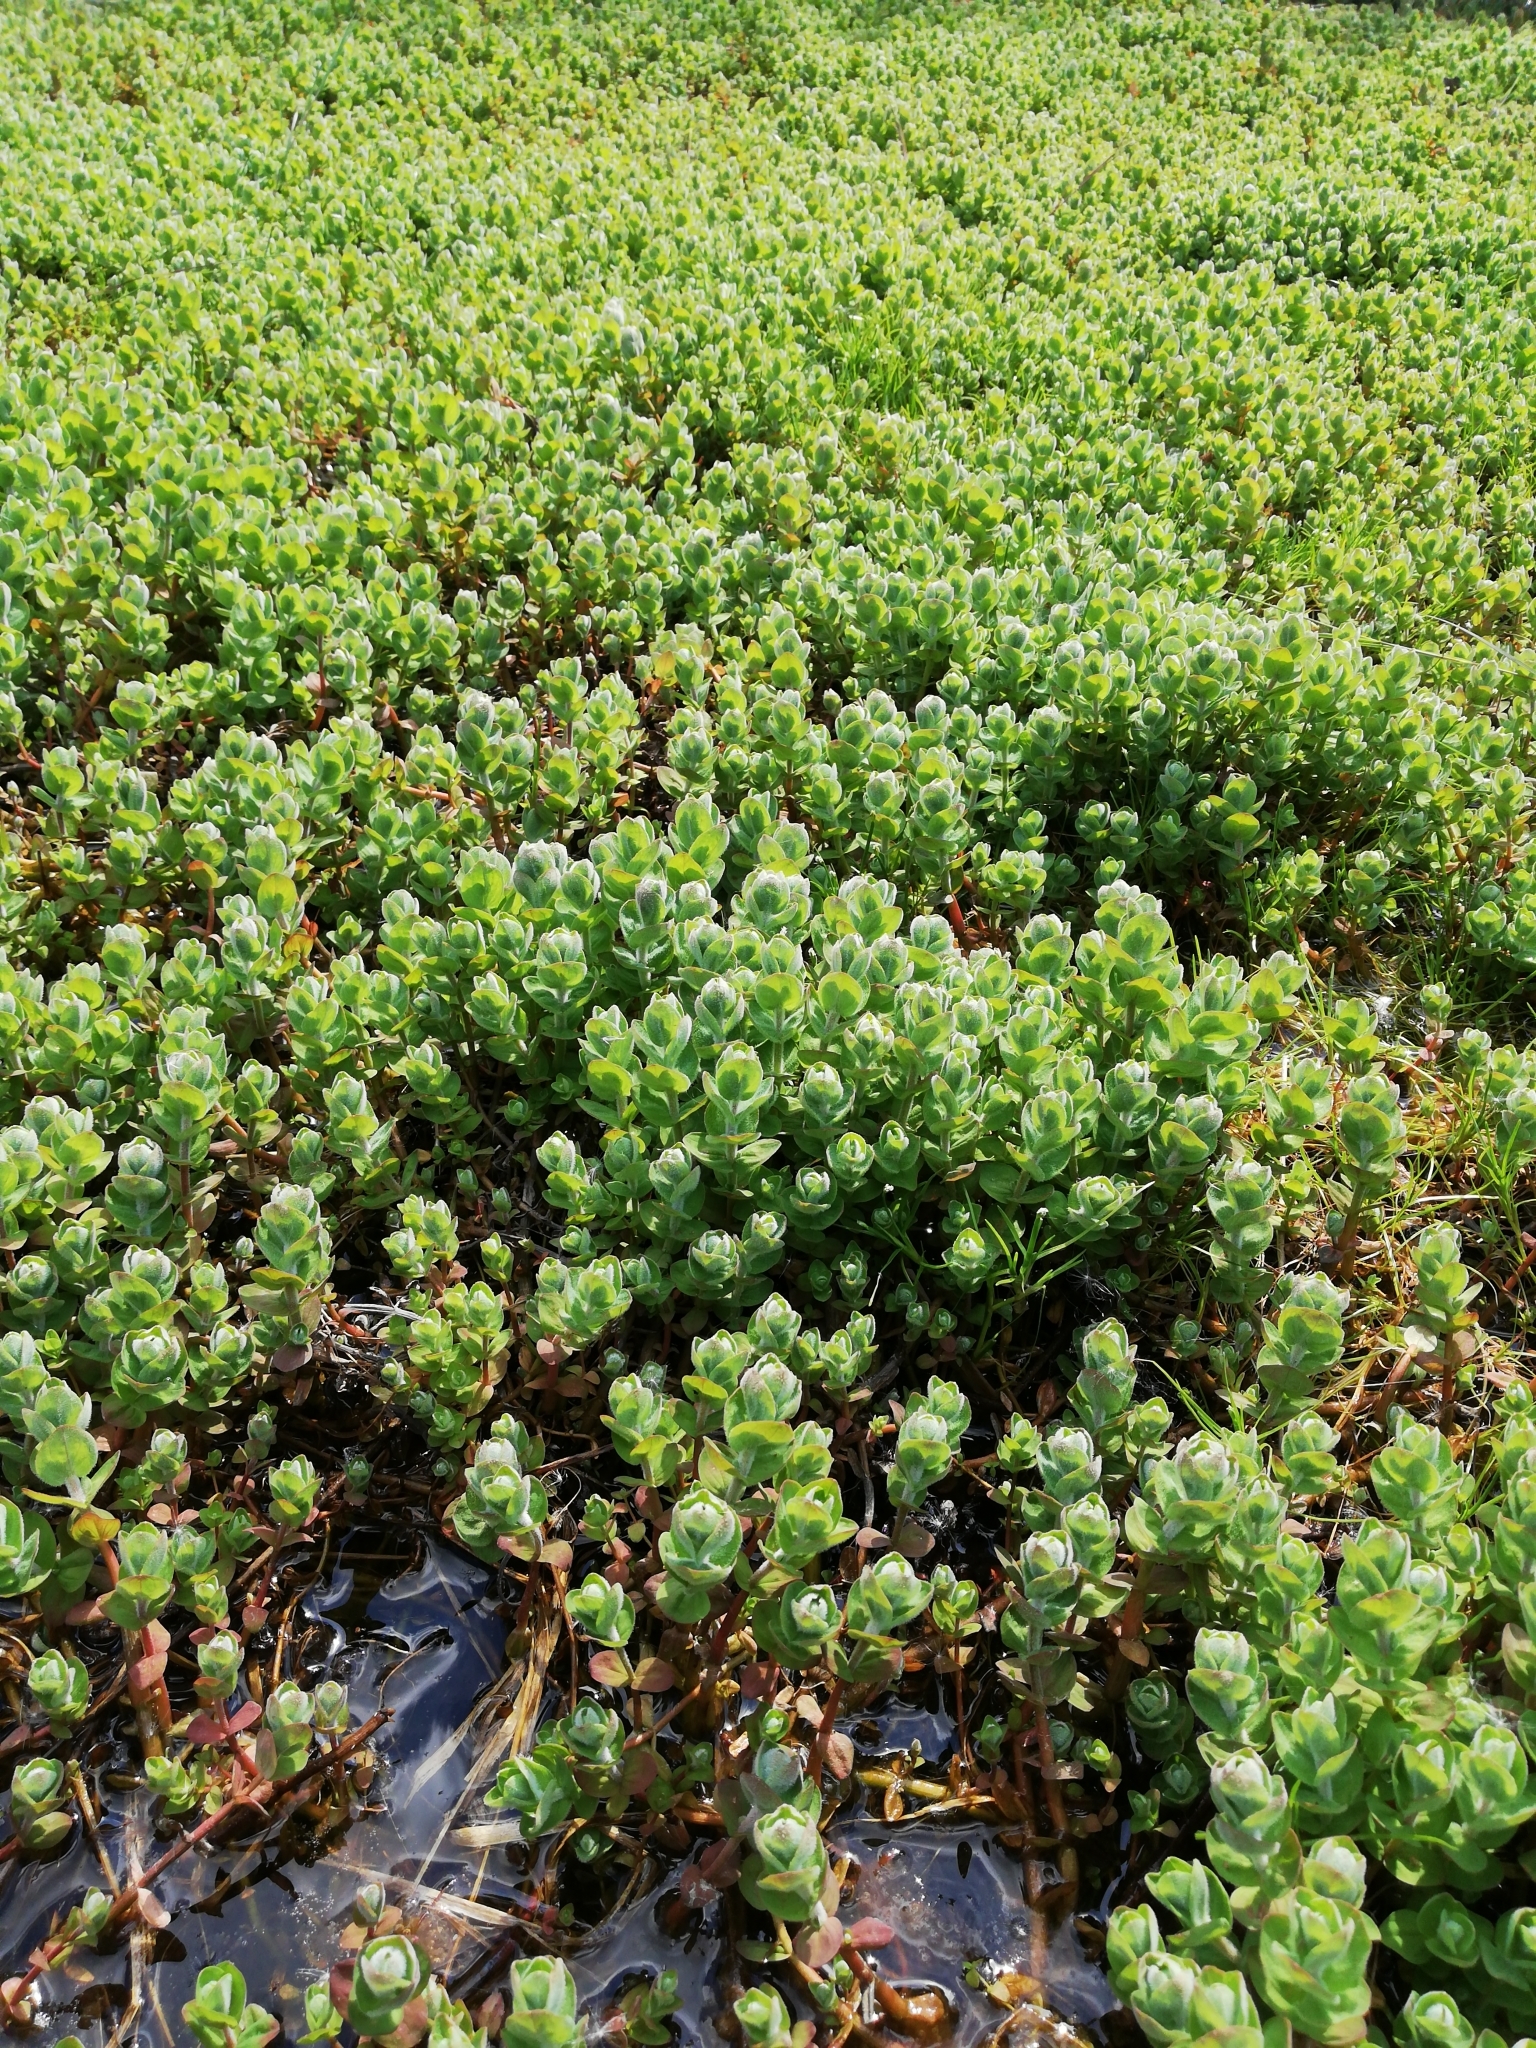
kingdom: Plantae
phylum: Tracheophyta
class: Magnoliopsida
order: Malpighiales
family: Hypericaceae
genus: Hypericum
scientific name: Hypericum elodes
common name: Marsh st. john's-wort
